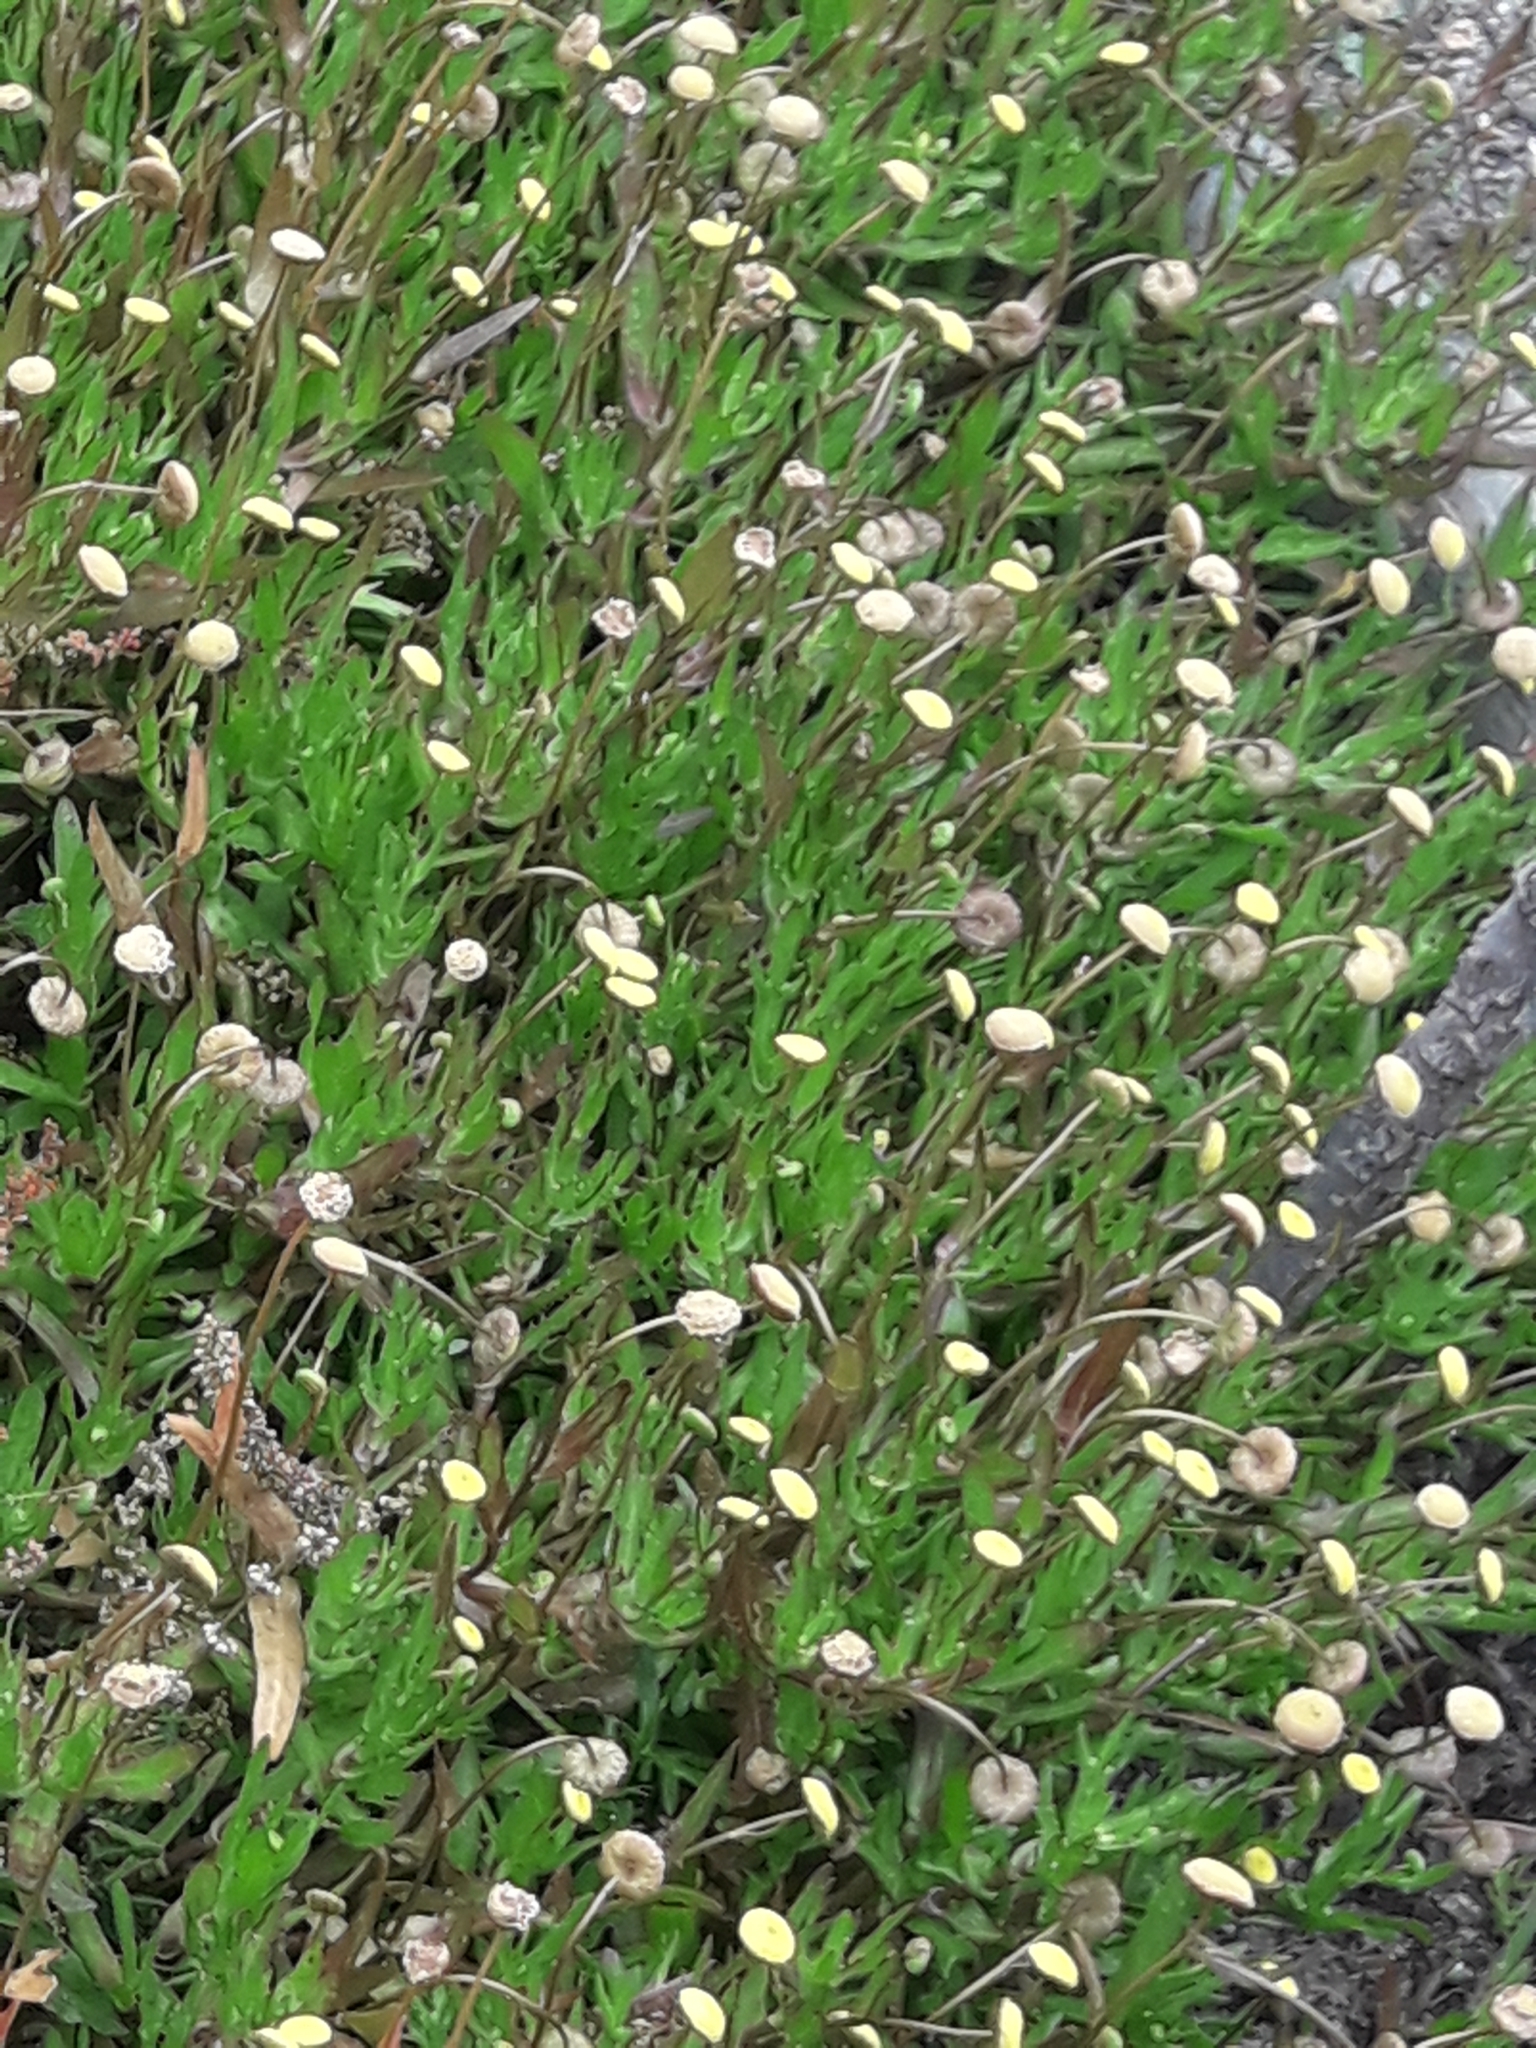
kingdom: Plantae
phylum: Tracheophyta
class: Magnoliopsida
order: Asterales
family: Asteraceae
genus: Cotula
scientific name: Cotula coronopifolia
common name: Buttonweed
